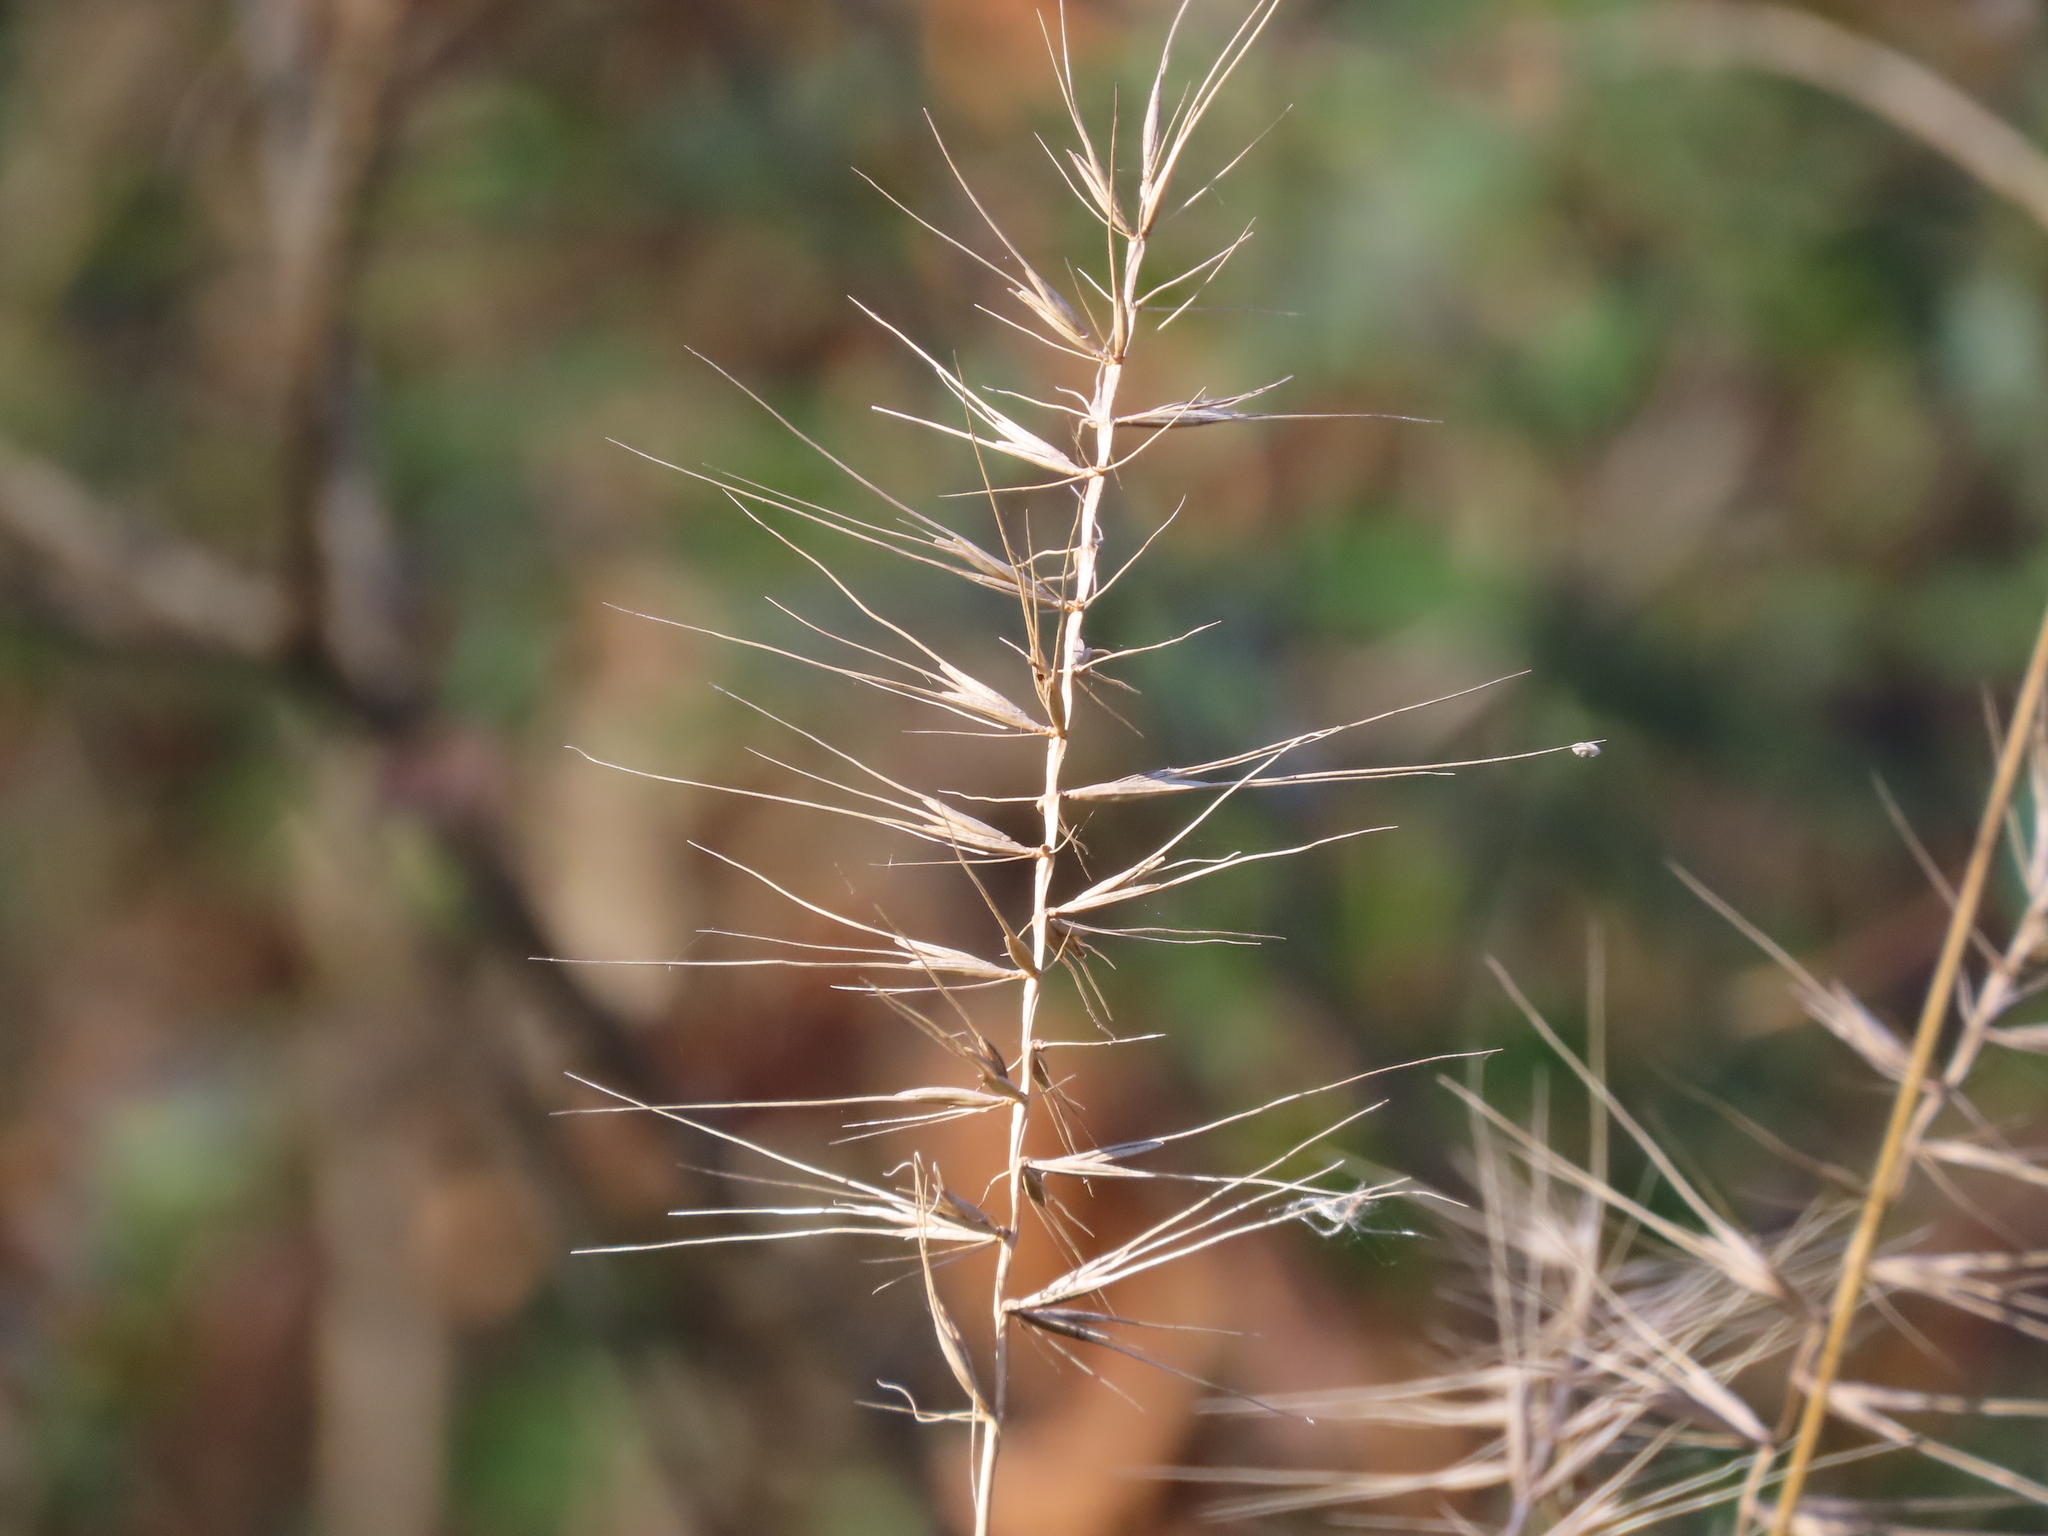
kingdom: Plantae
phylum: Tracheophyta
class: Liliopsida
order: Poales
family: Poaceae
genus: Elymus
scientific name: Elymus hystrix
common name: Bottlebrush grass
